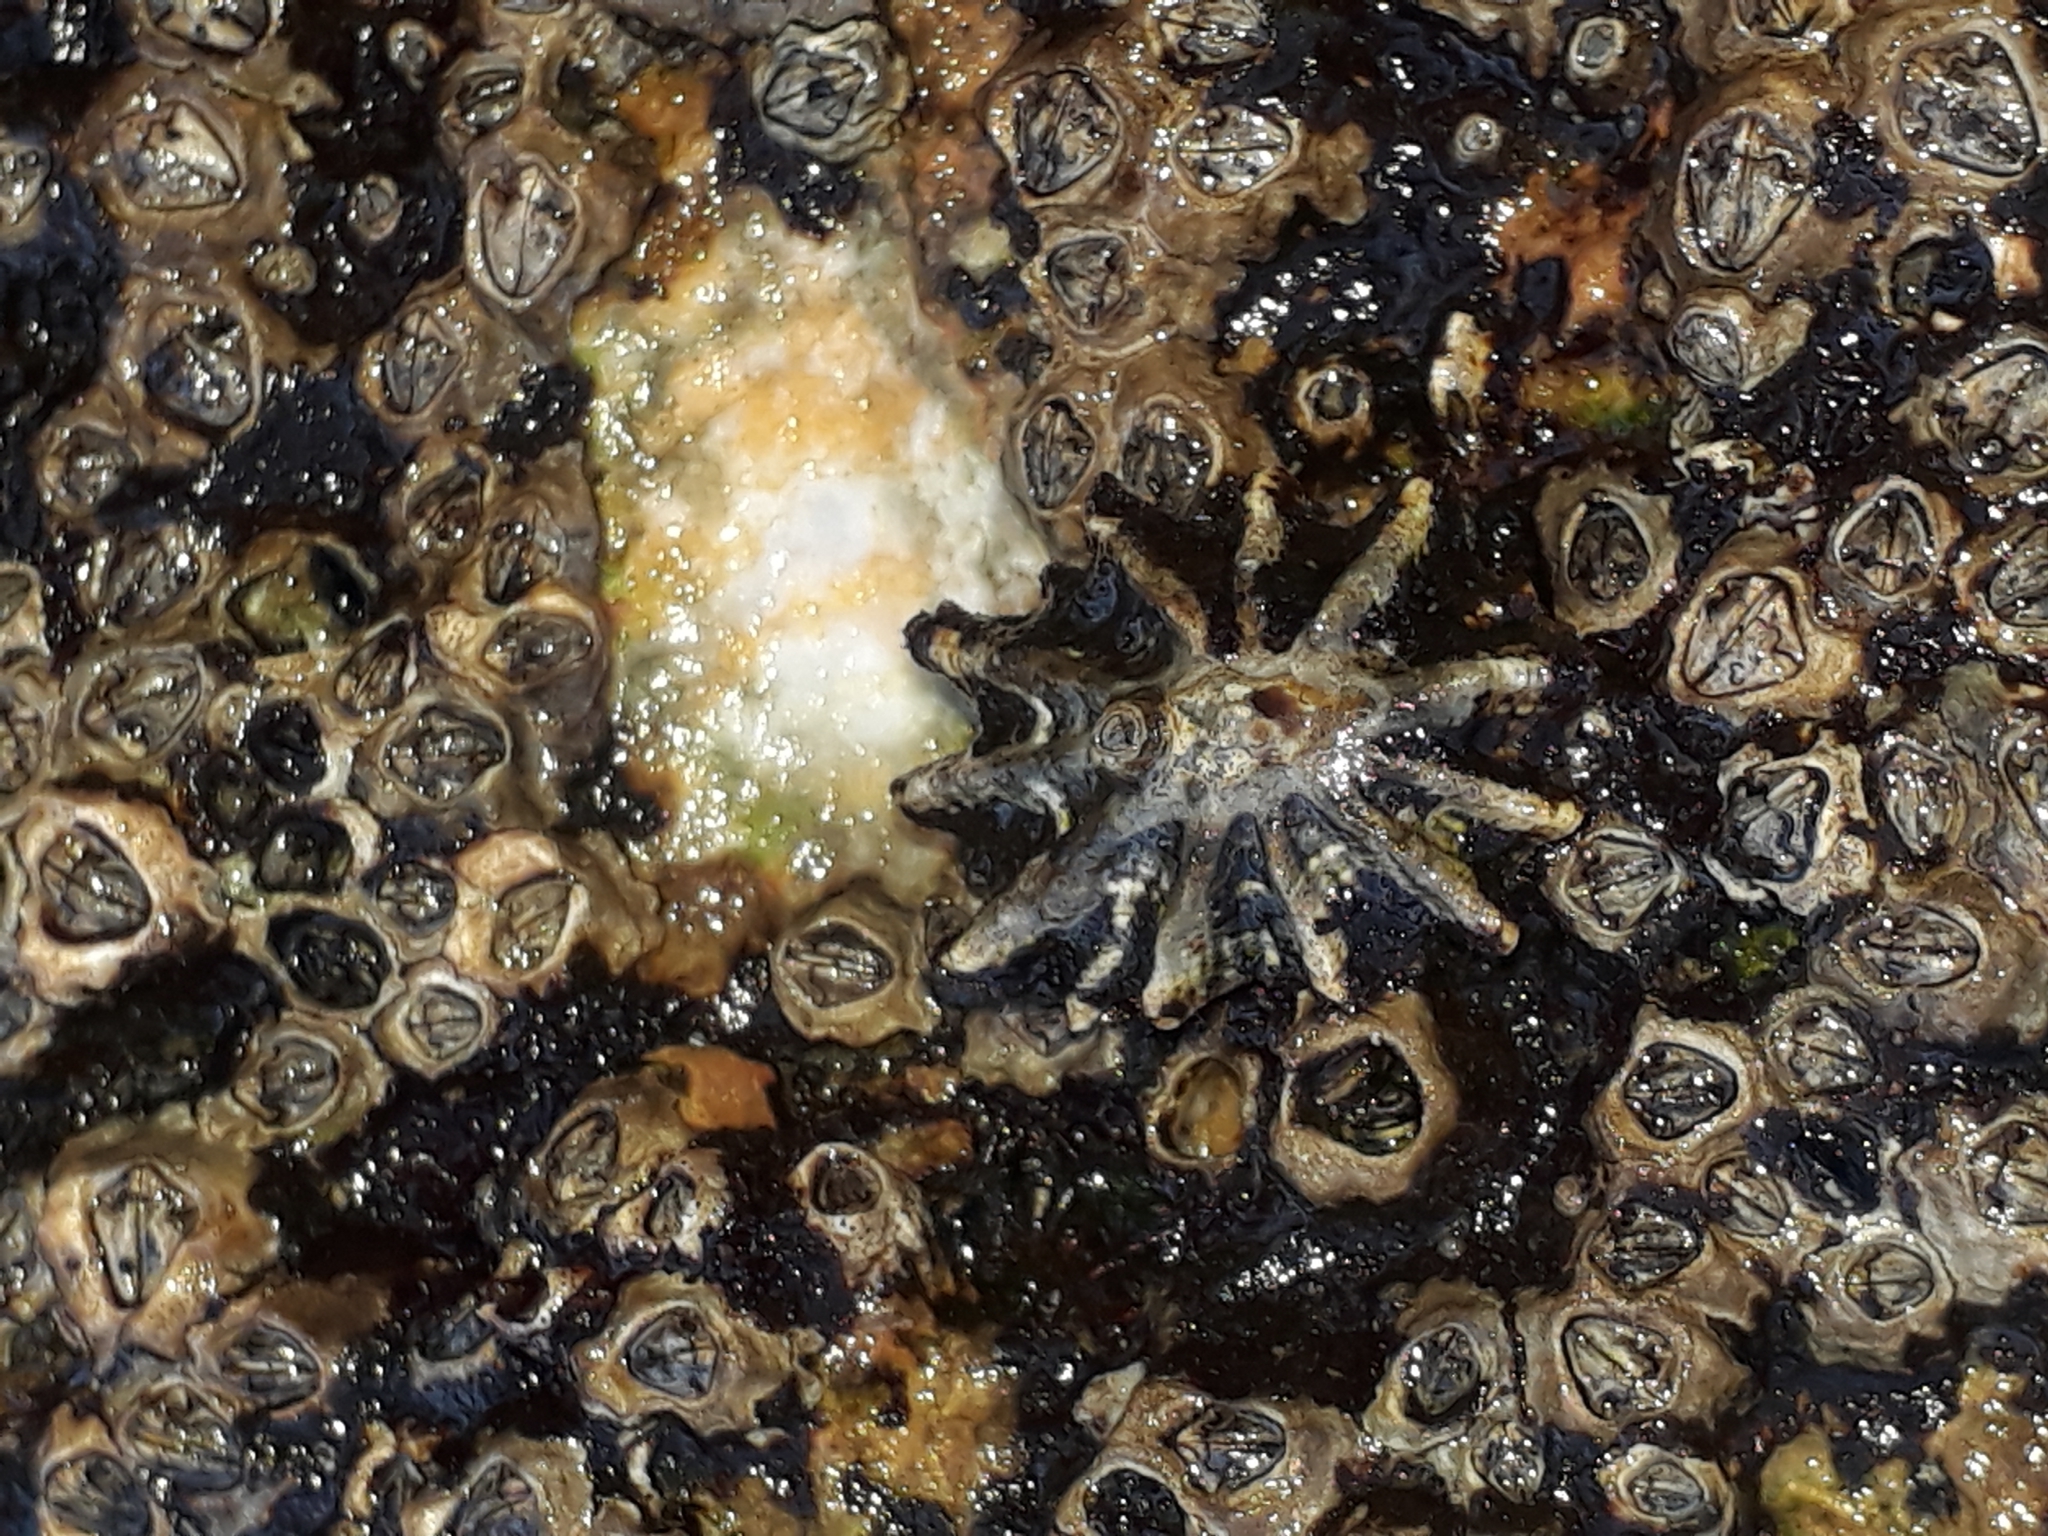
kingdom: Animalia
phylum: Mollusca
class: Gastropoda
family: Lottiidae
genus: Patelloida
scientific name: Patelloida corticata
